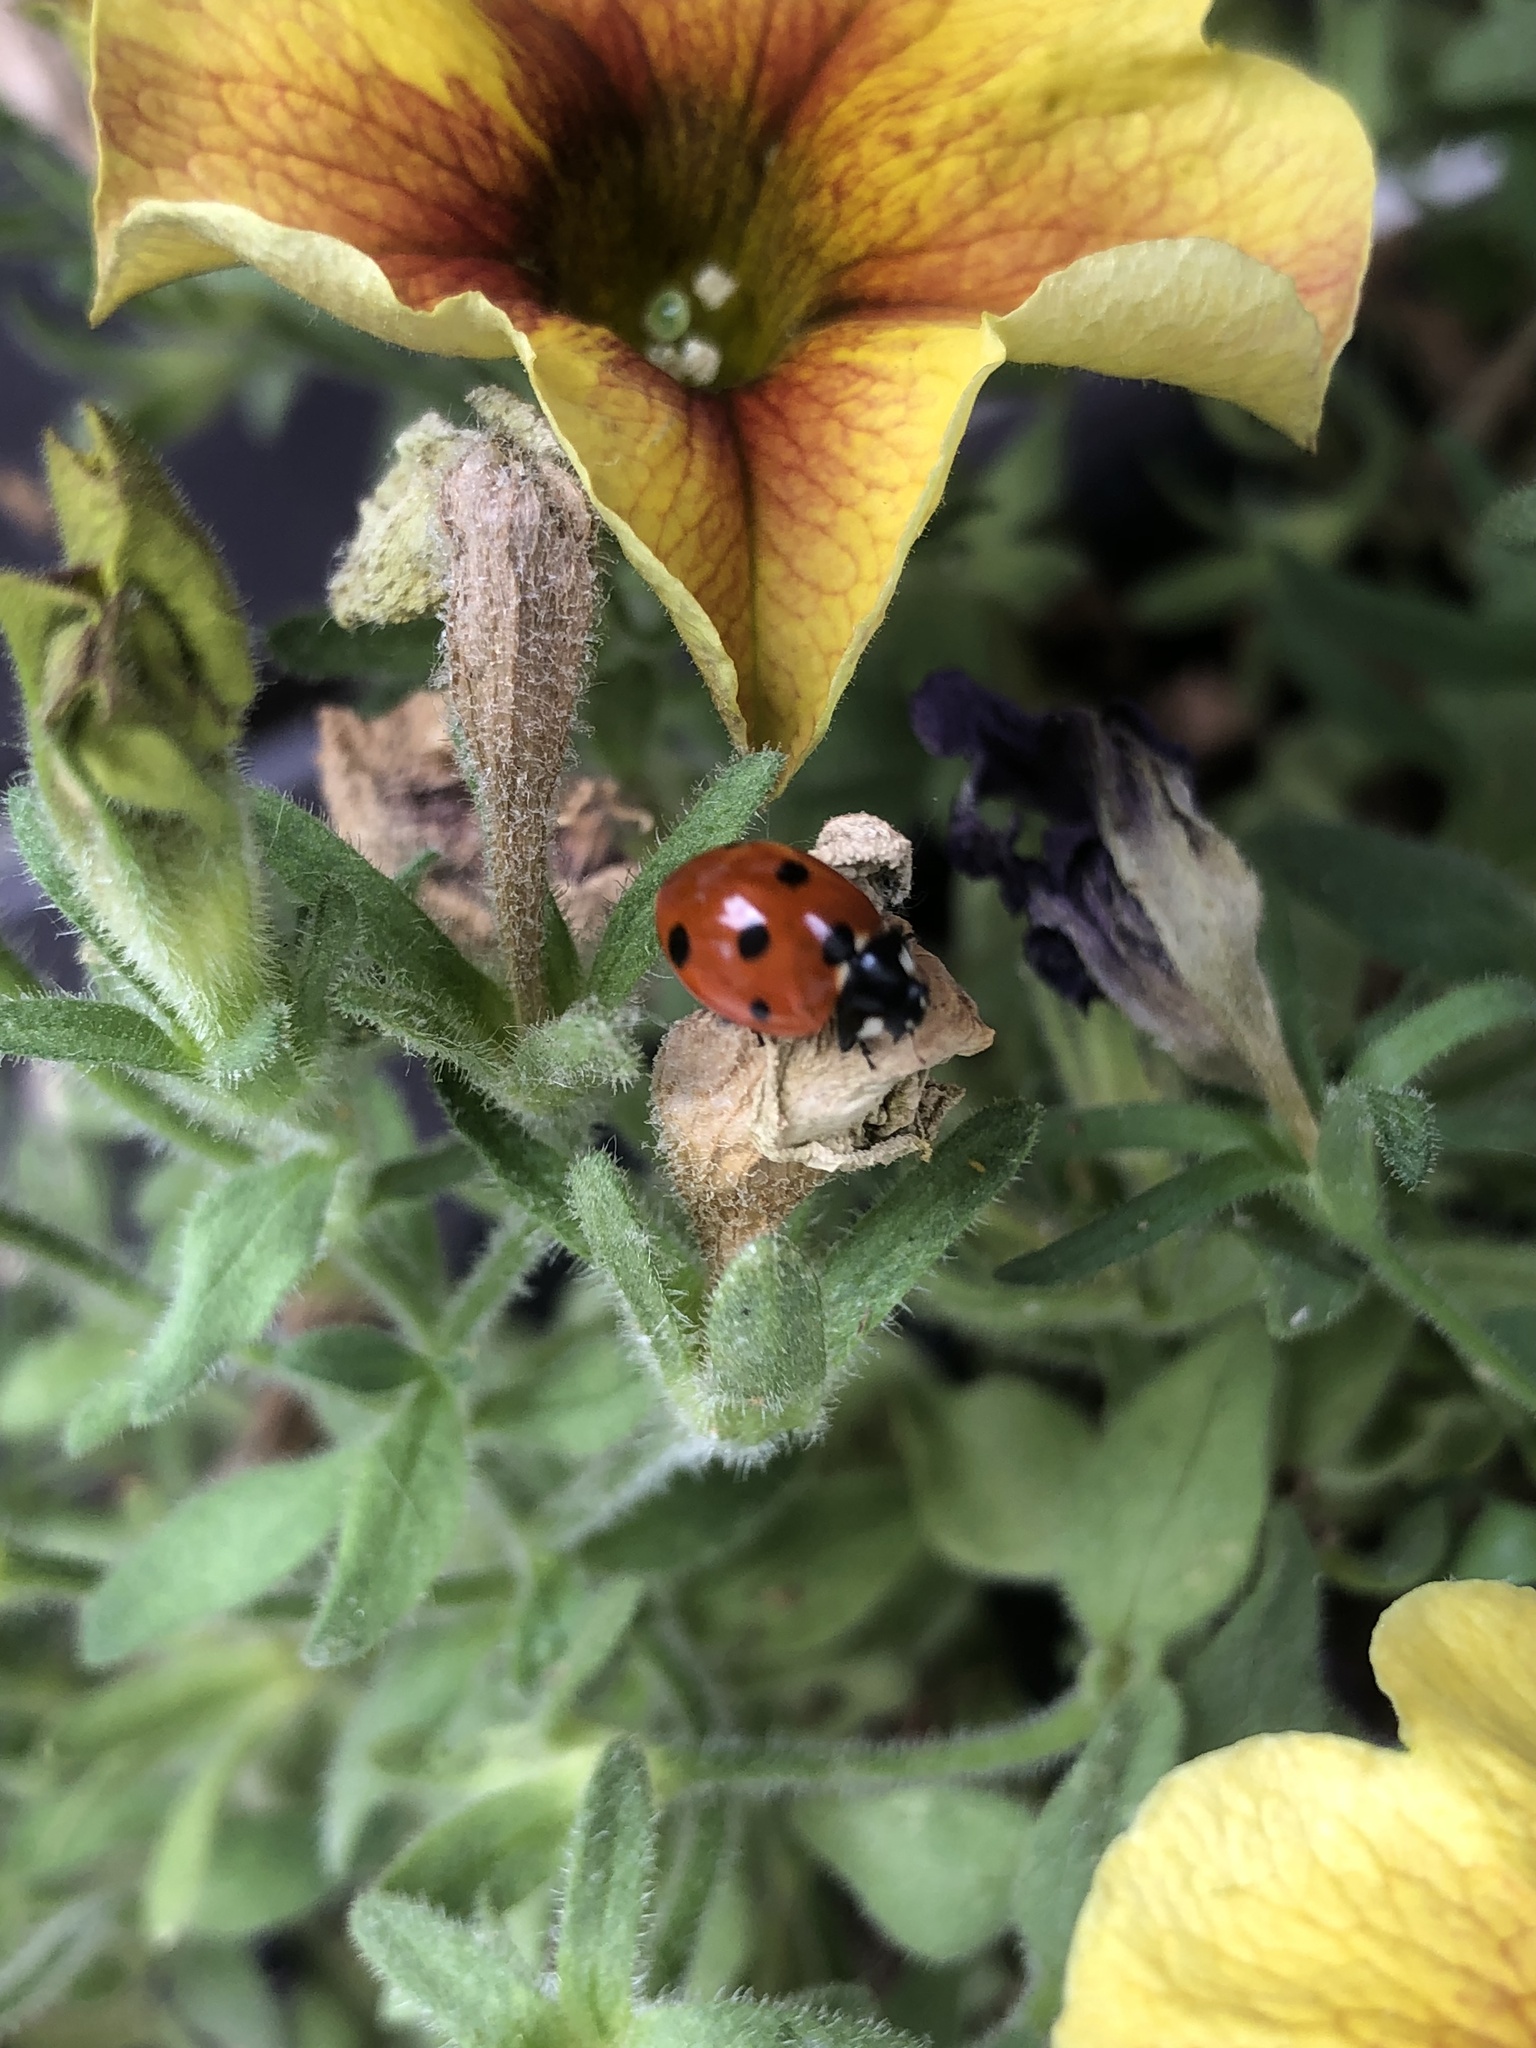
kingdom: Animalia
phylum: Arthropoda
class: Insecta
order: Coleoptera
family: Coccinellidae
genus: Coccinella
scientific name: Coccinella septempunctata
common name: Sevenspotted lady beetle
